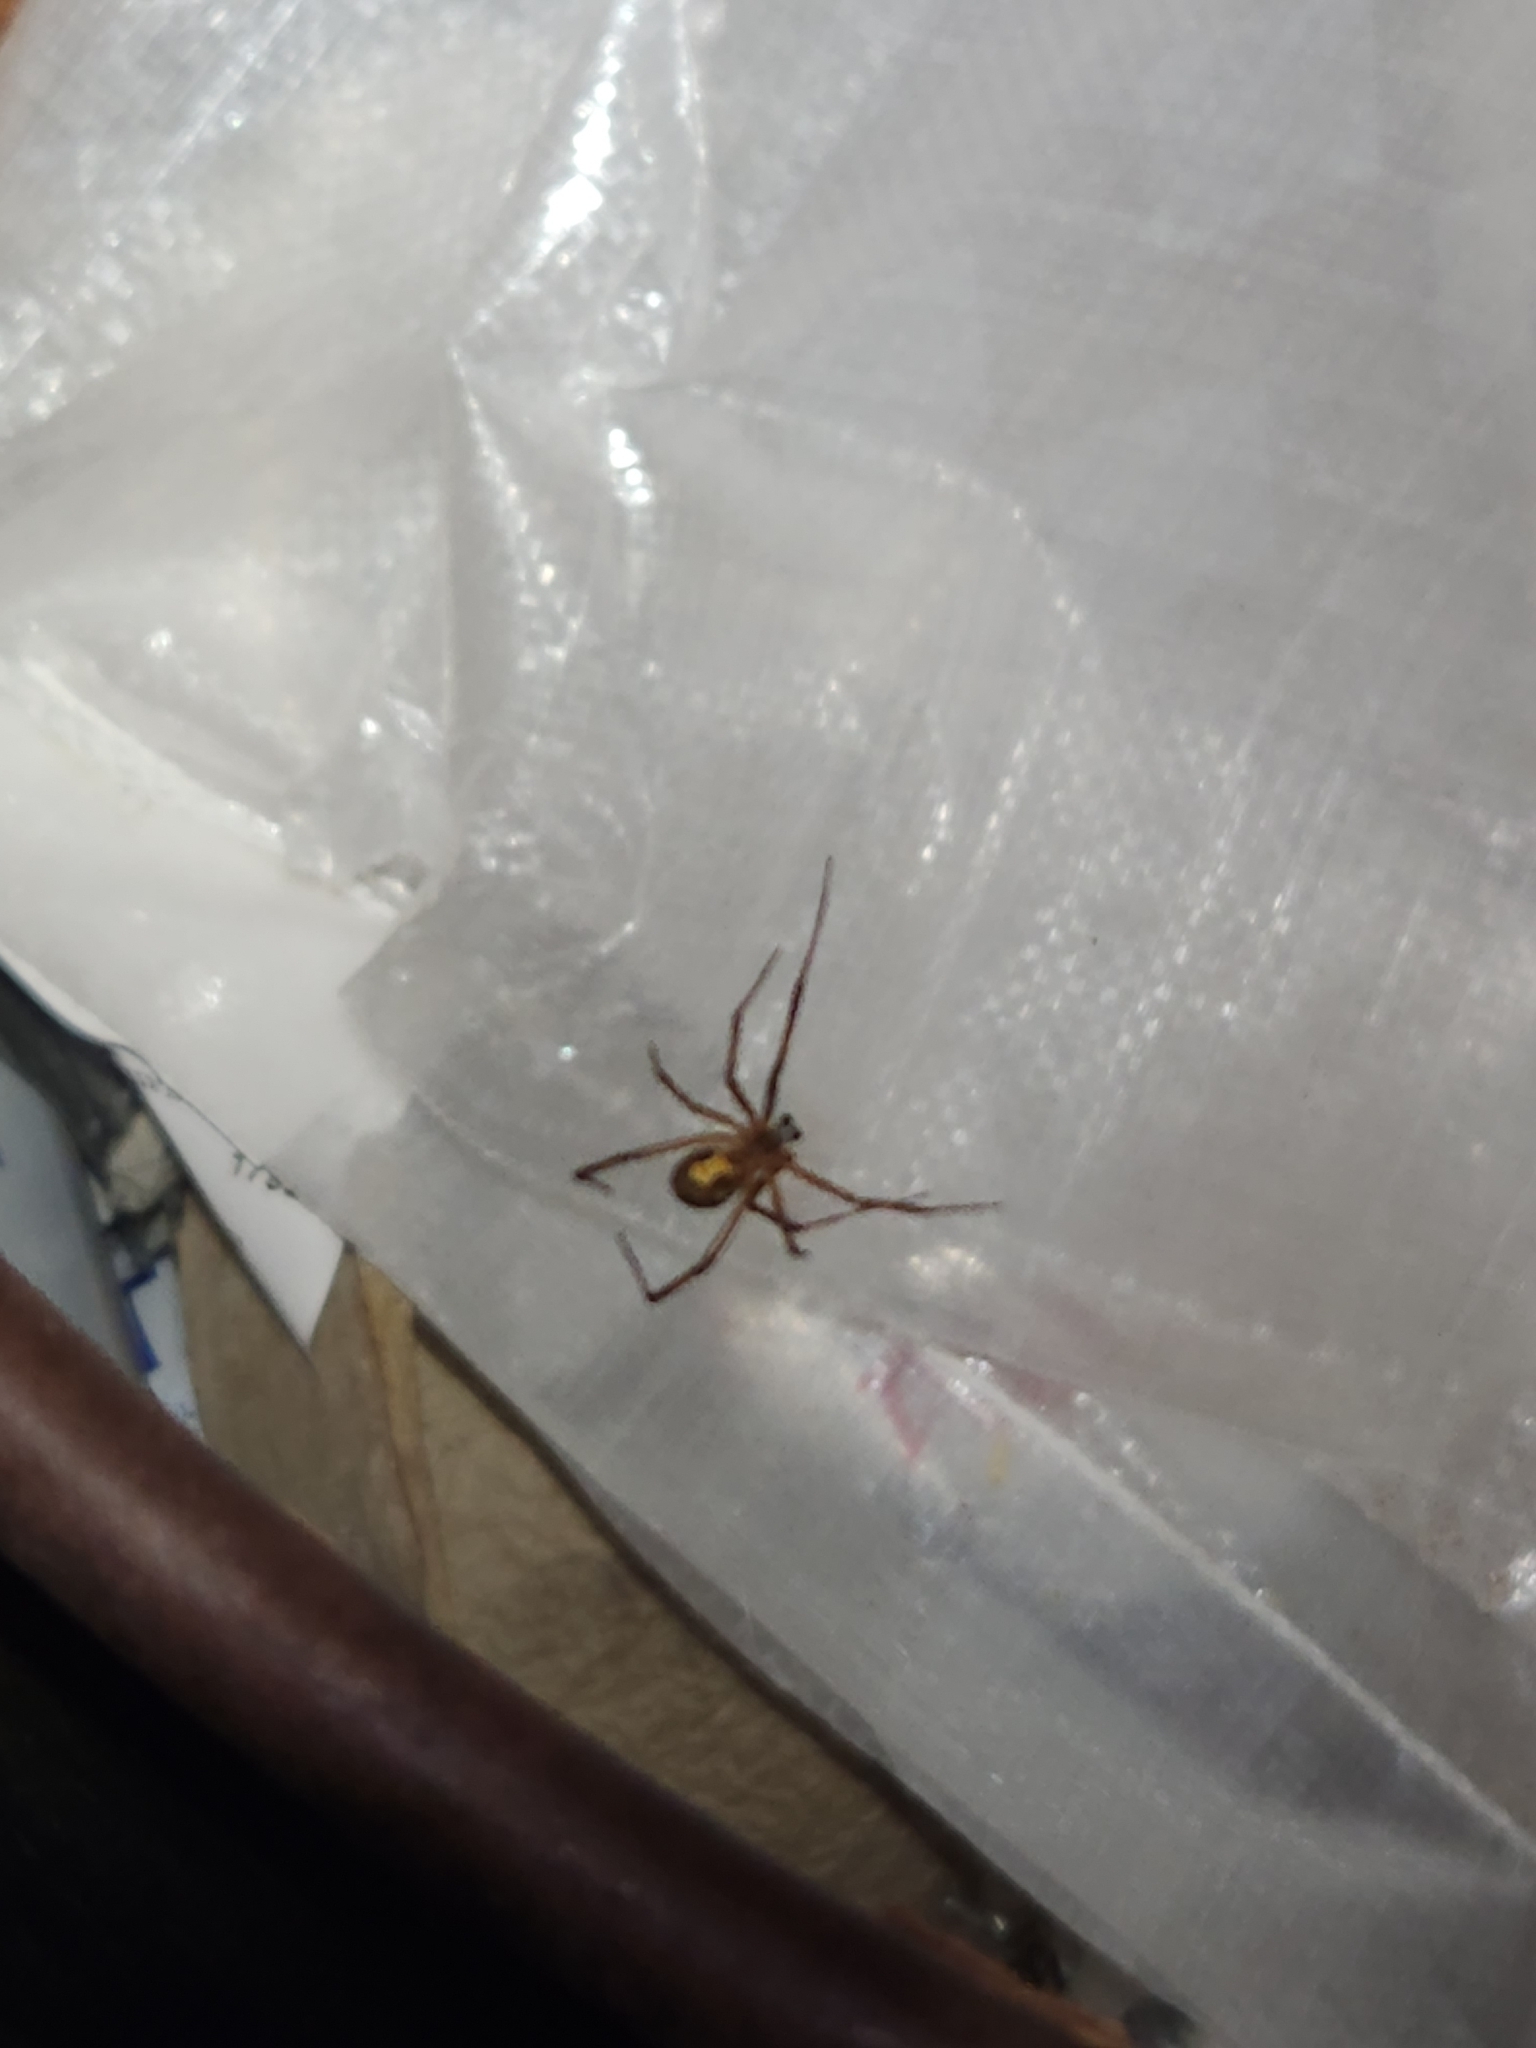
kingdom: Animalia
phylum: Arthropoda
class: Arachnida
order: Araneae
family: Theridiidae
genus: Latrodectus
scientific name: Latrodectus hesperus
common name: Western black widow
